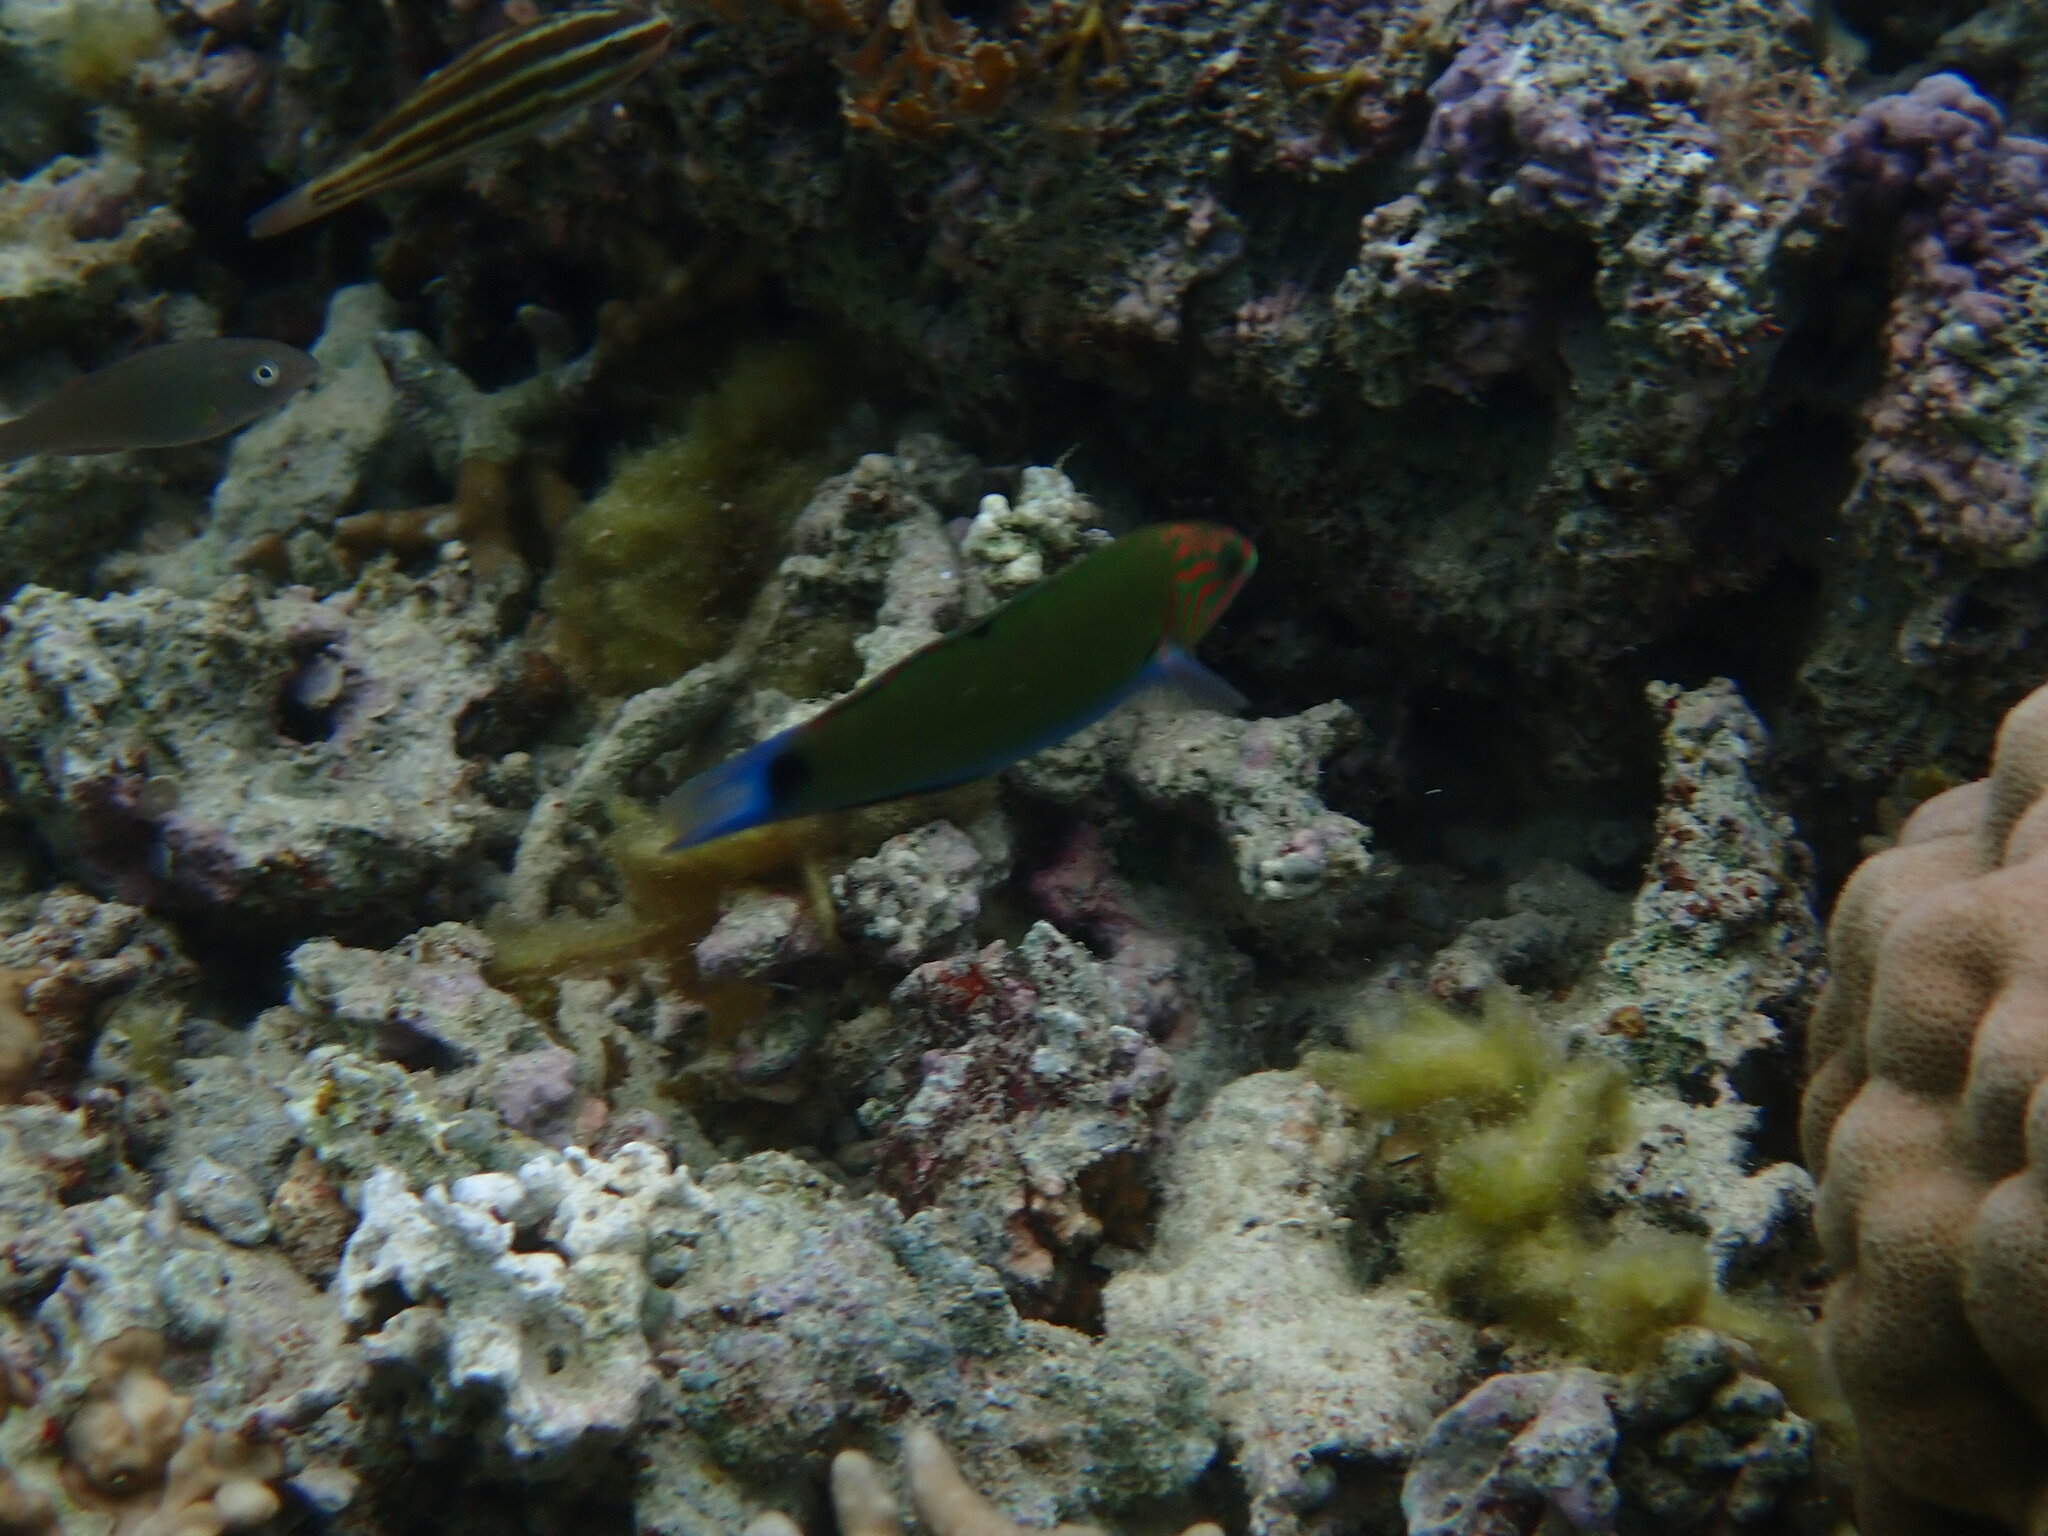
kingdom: Animalia
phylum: Chordata
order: Perciformes
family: Labridae
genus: Thalassoma
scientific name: Thalassoma lunare
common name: Blue wrasse
